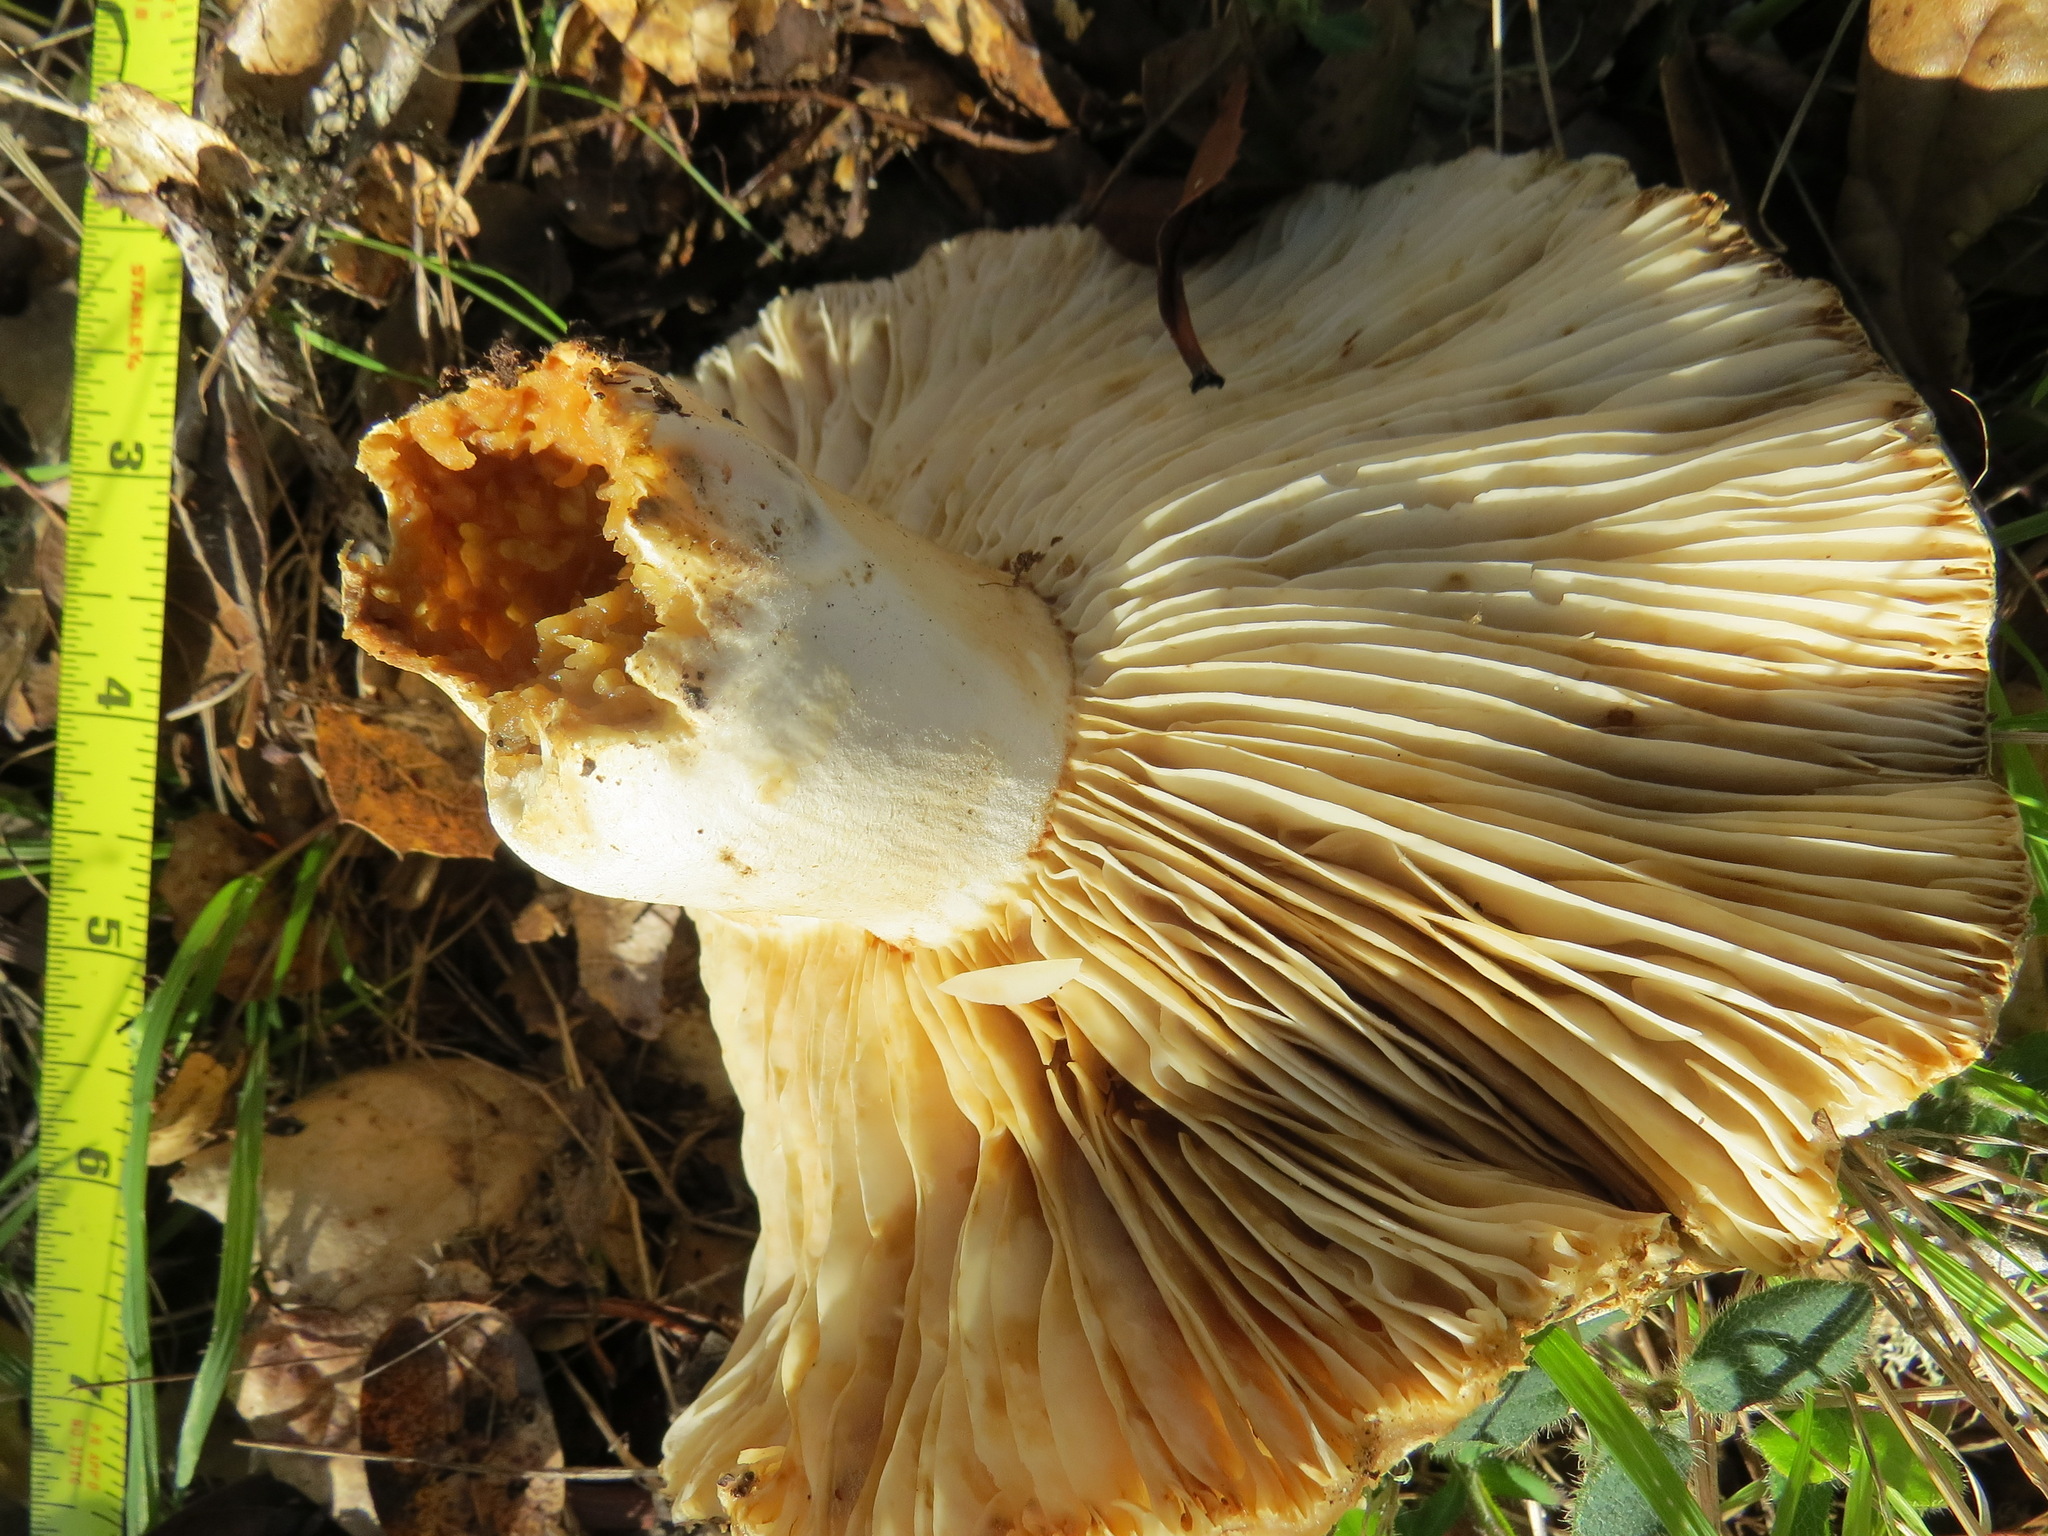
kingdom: Fungi
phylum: Basidiomycota
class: Agaricomycetes
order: Russulales
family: Russulaceae
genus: Russula
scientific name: Russula brevipes
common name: Short-stemmed russula
